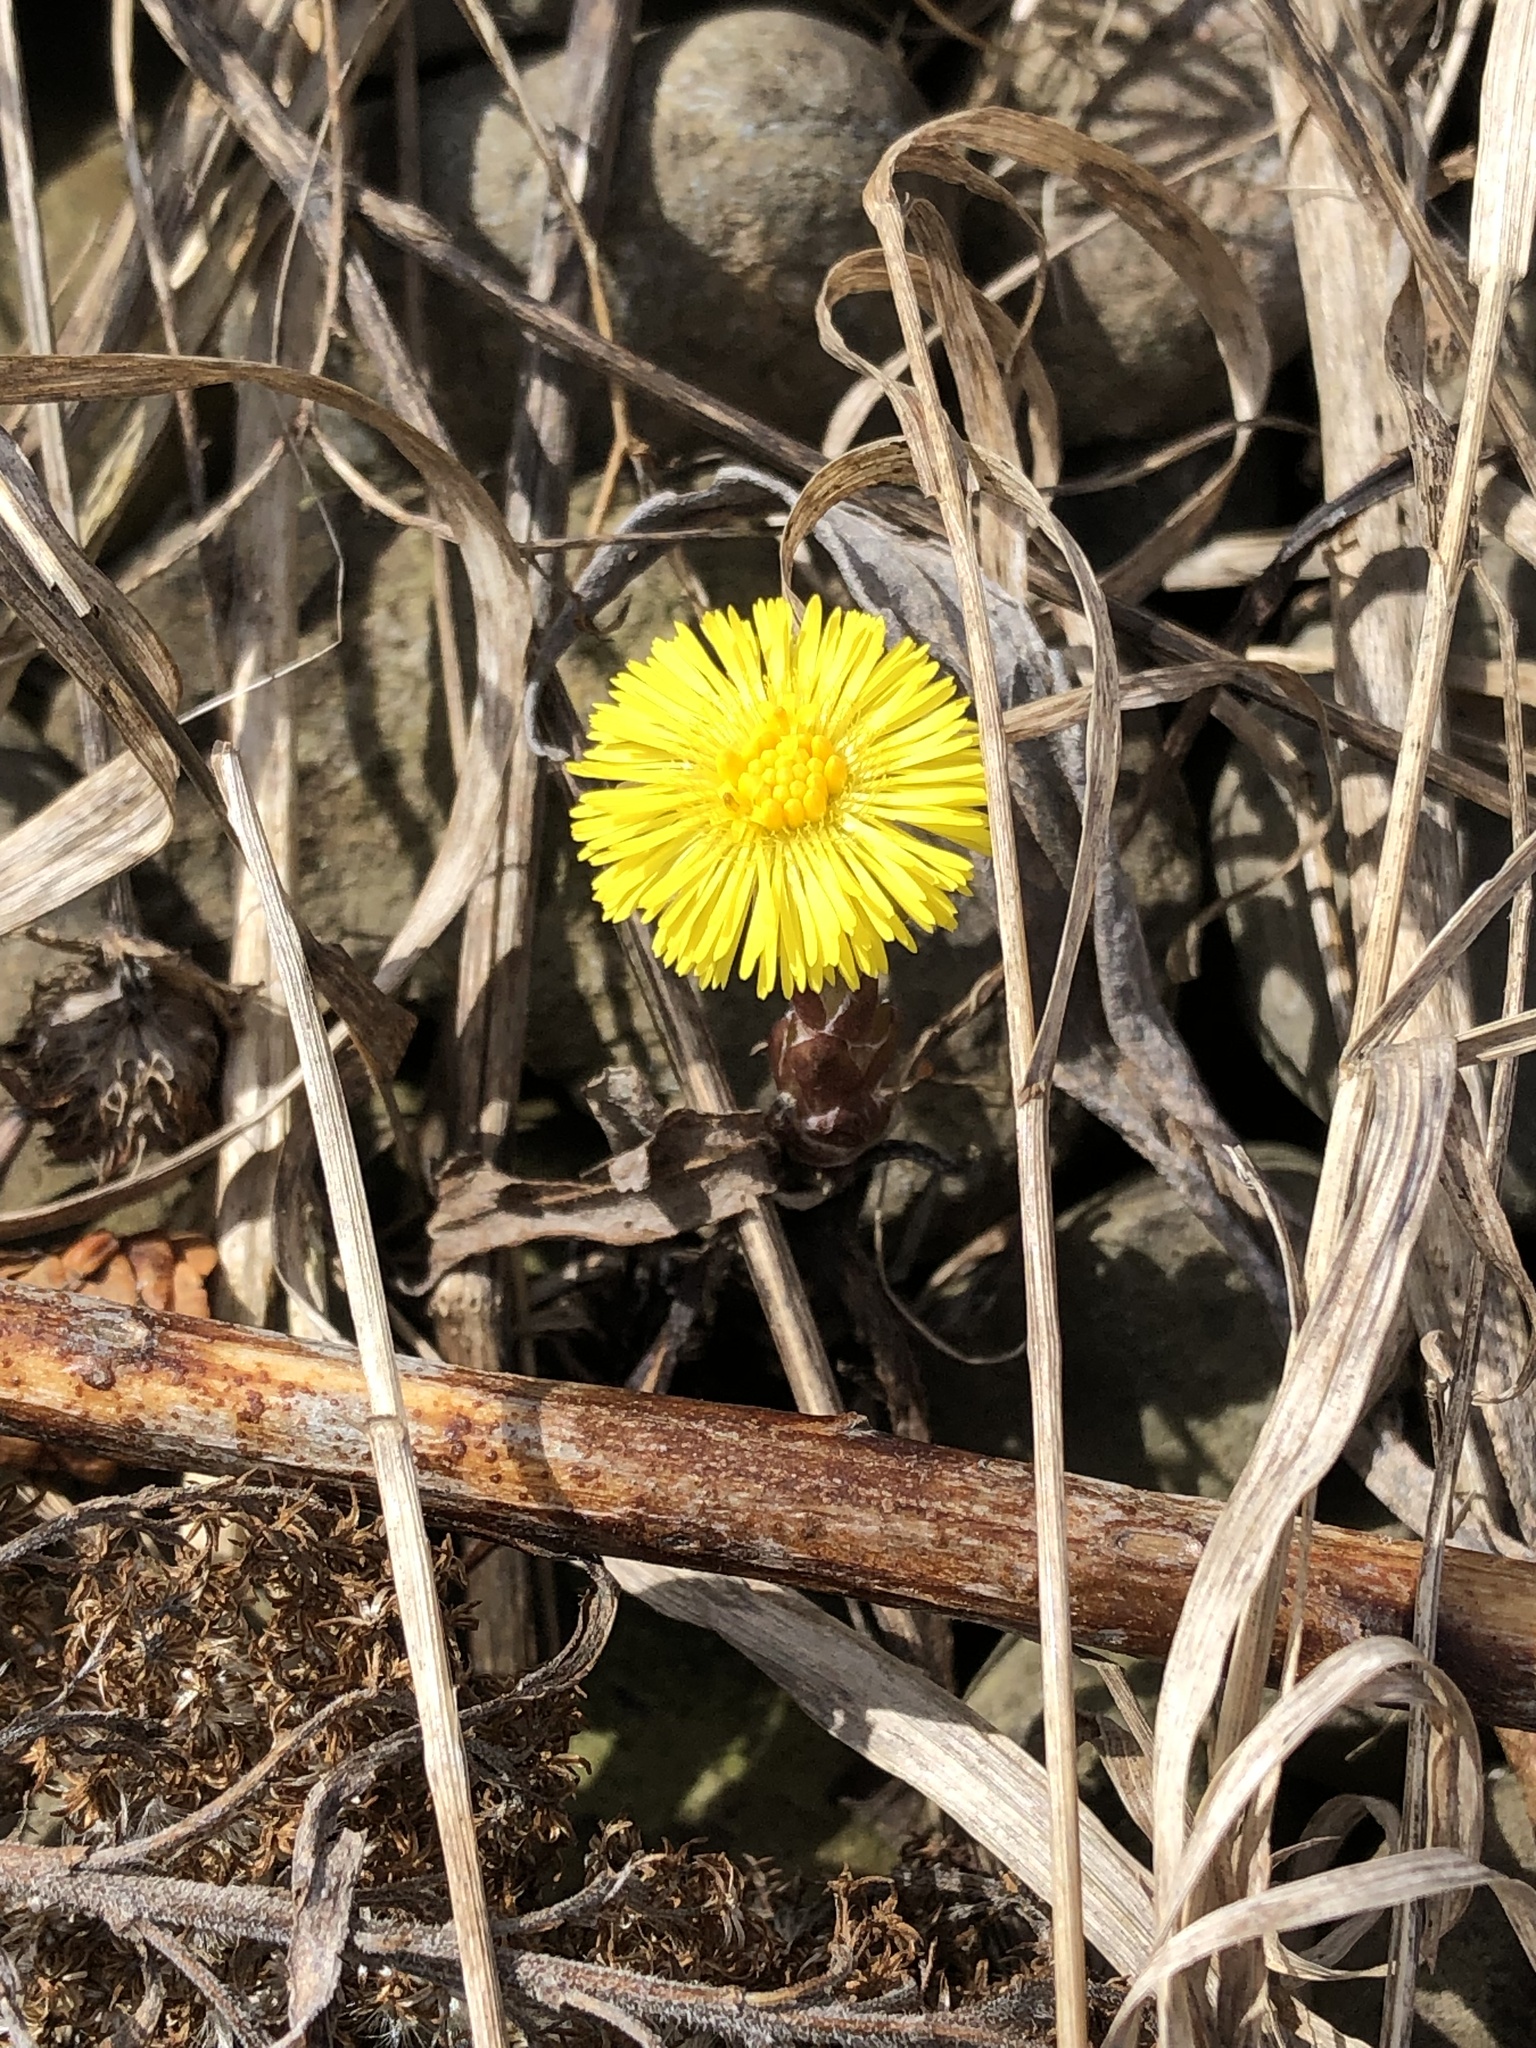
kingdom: Plantae
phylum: Tracheophyta
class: Magnoliopsida
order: Asterales
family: Asteraceae
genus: Tussilago
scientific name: Tussilago farfara
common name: Coltsfoot
